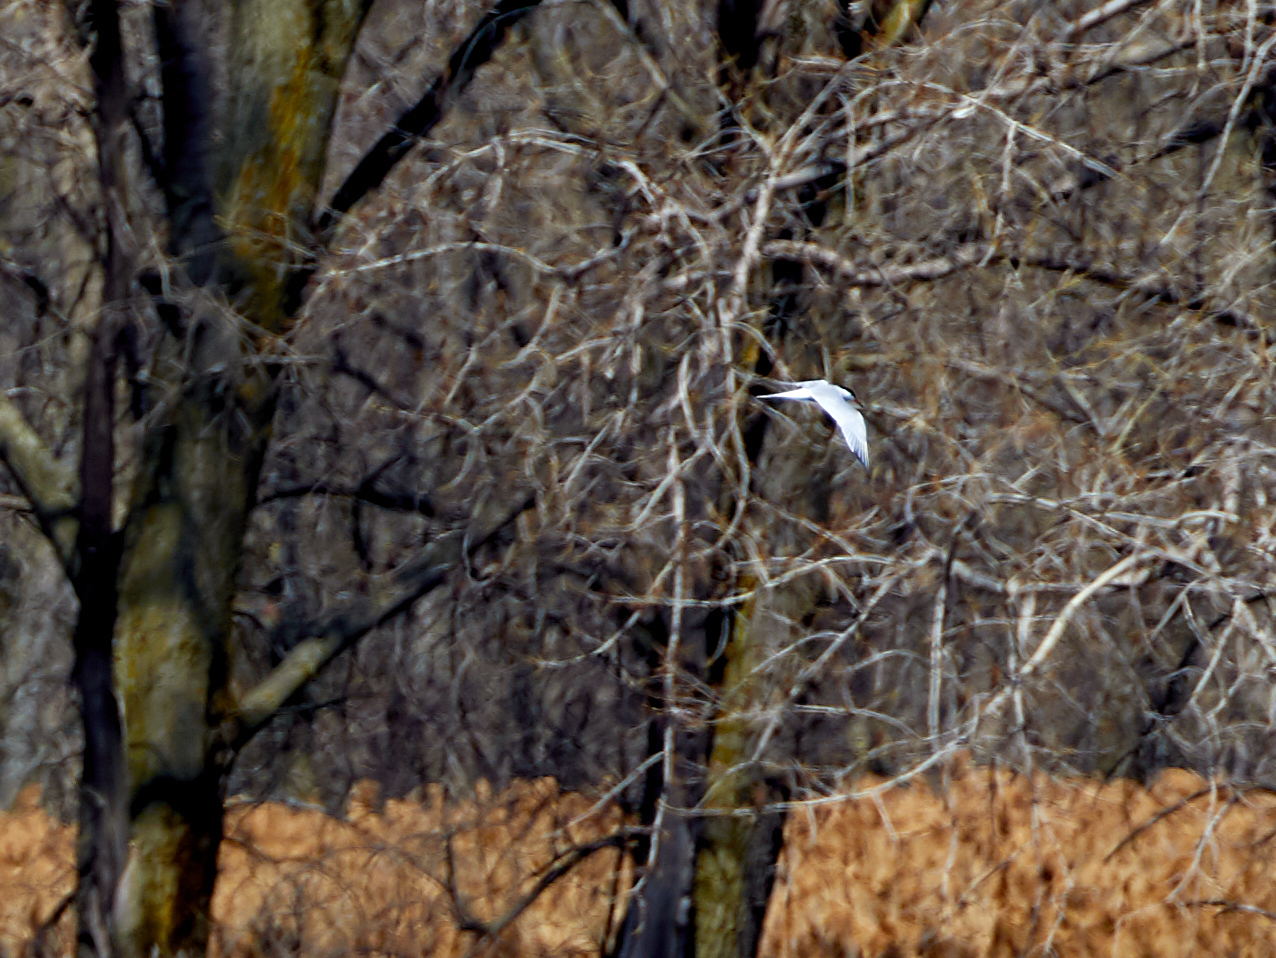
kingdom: Animalia
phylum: Chordata
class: Aves
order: Charadriiformes
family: Laridae
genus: Sterna
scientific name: Sterna hirundo
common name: Common tern
